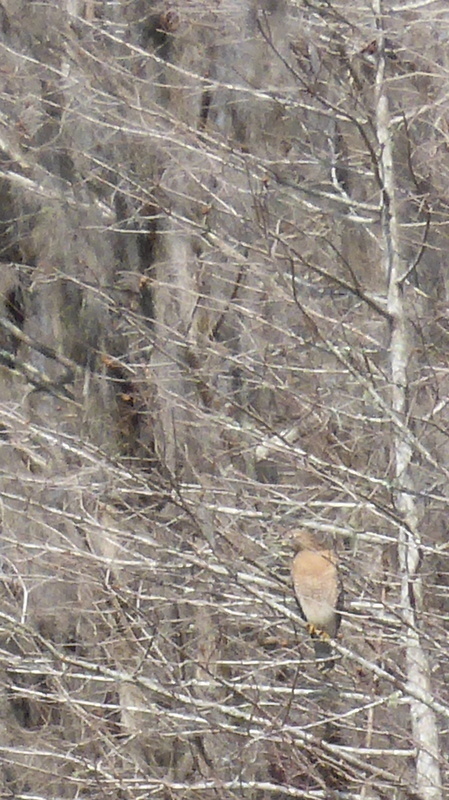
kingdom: Animalia
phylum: Chordata
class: Aves
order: Accipitriformes
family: Accipitridae
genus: Buteo
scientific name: Buteo lineatus
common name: Red-shouldered hawk
